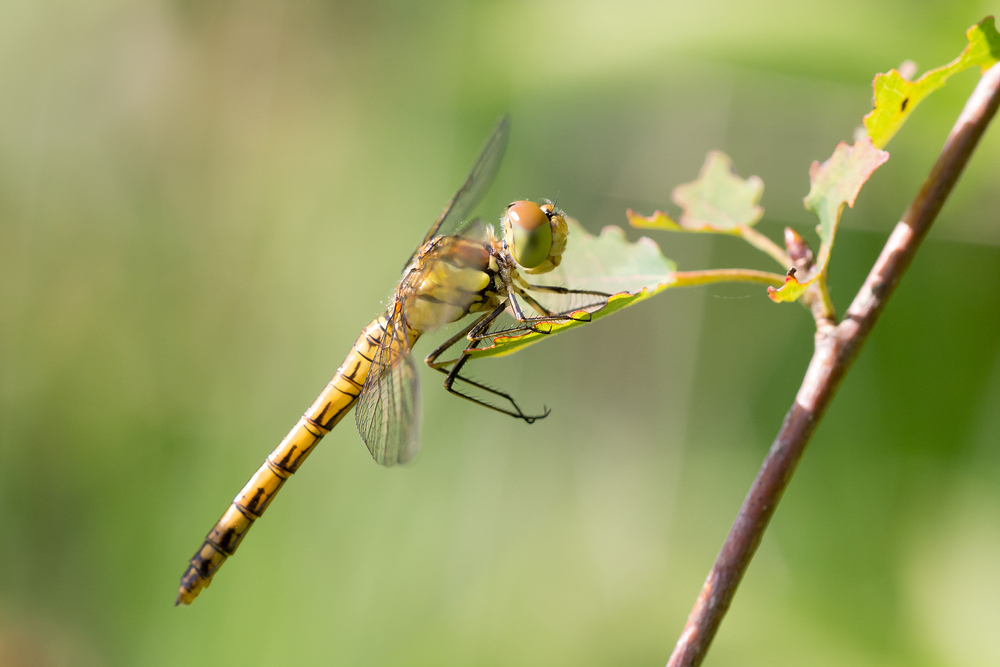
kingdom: Animalia
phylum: Arthropoda
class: Insecta
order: Odonata
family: Libellulidae
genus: Sympetrum
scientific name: Sympetrum striolatum
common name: Common darter
